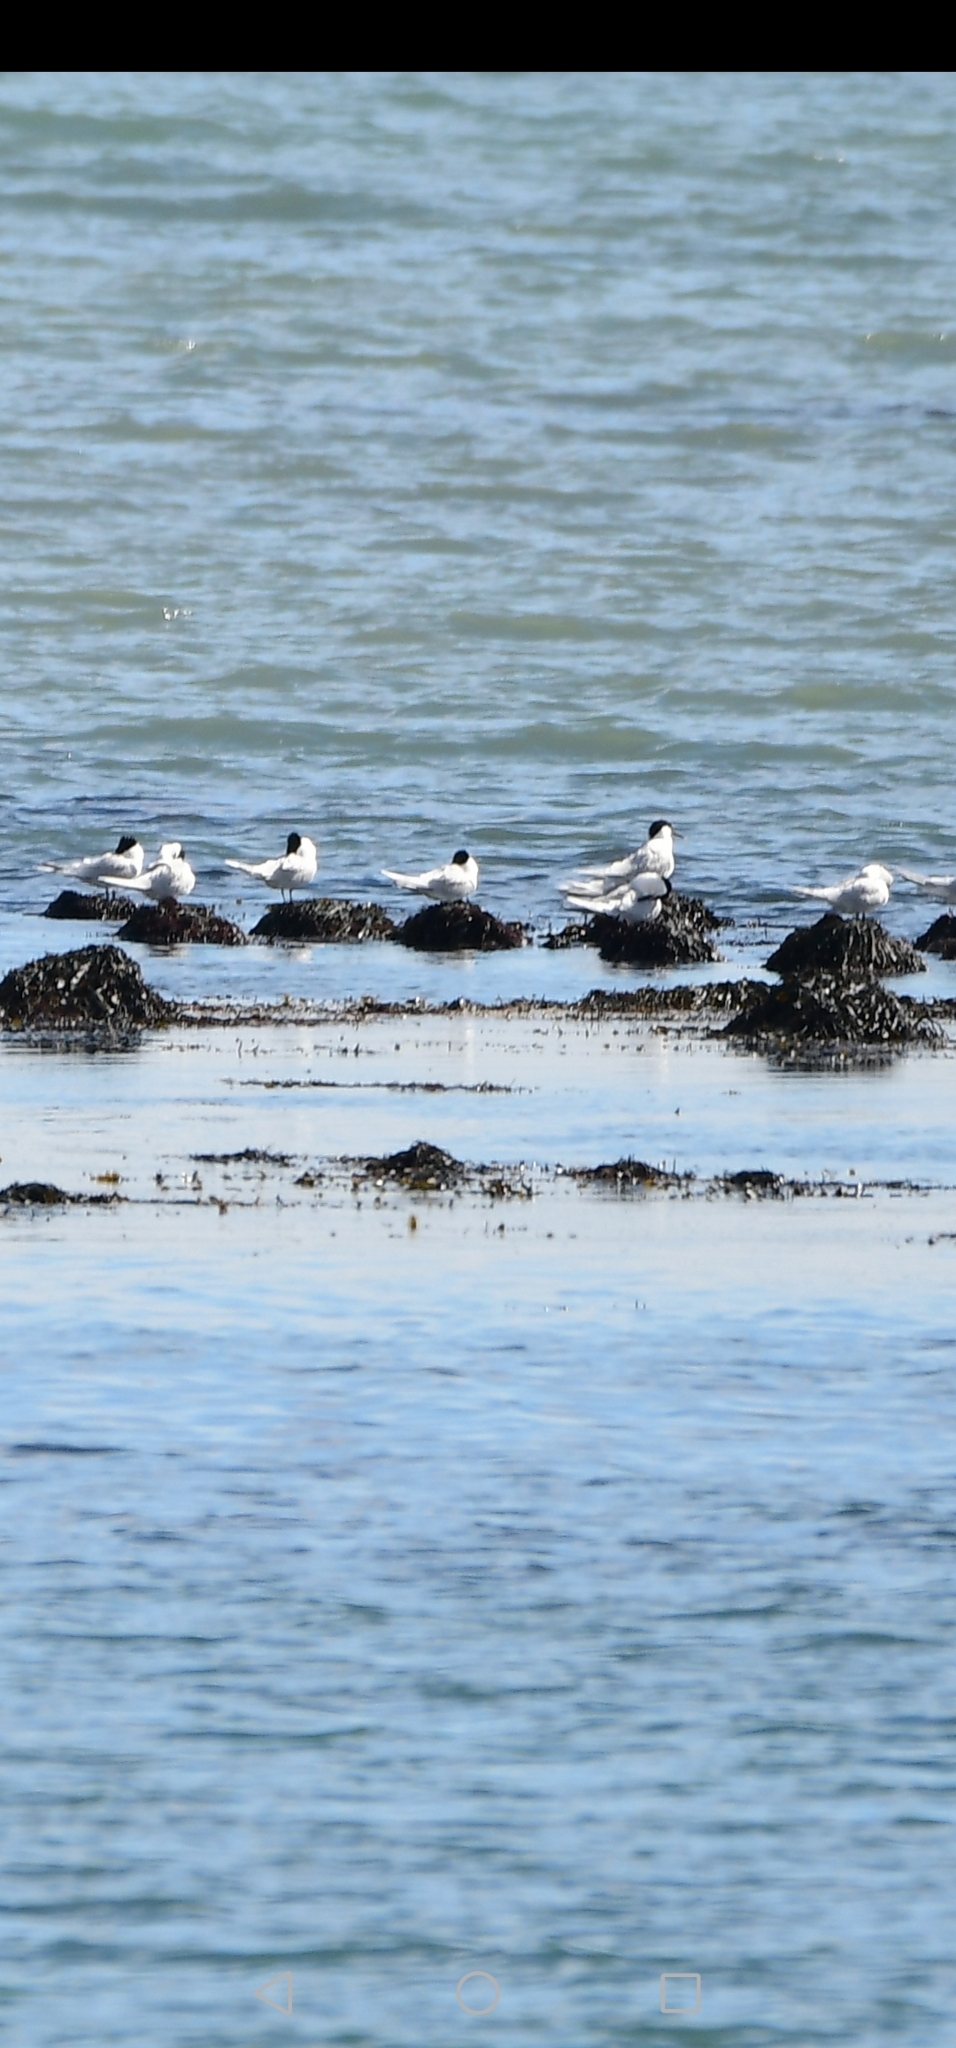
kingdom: Animalia
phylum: Chordata
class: Aves
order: Charadriiformes
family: Laridae
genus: Thalasseus
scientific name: Thalasseus sandvicensis
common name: Sandwich tern
